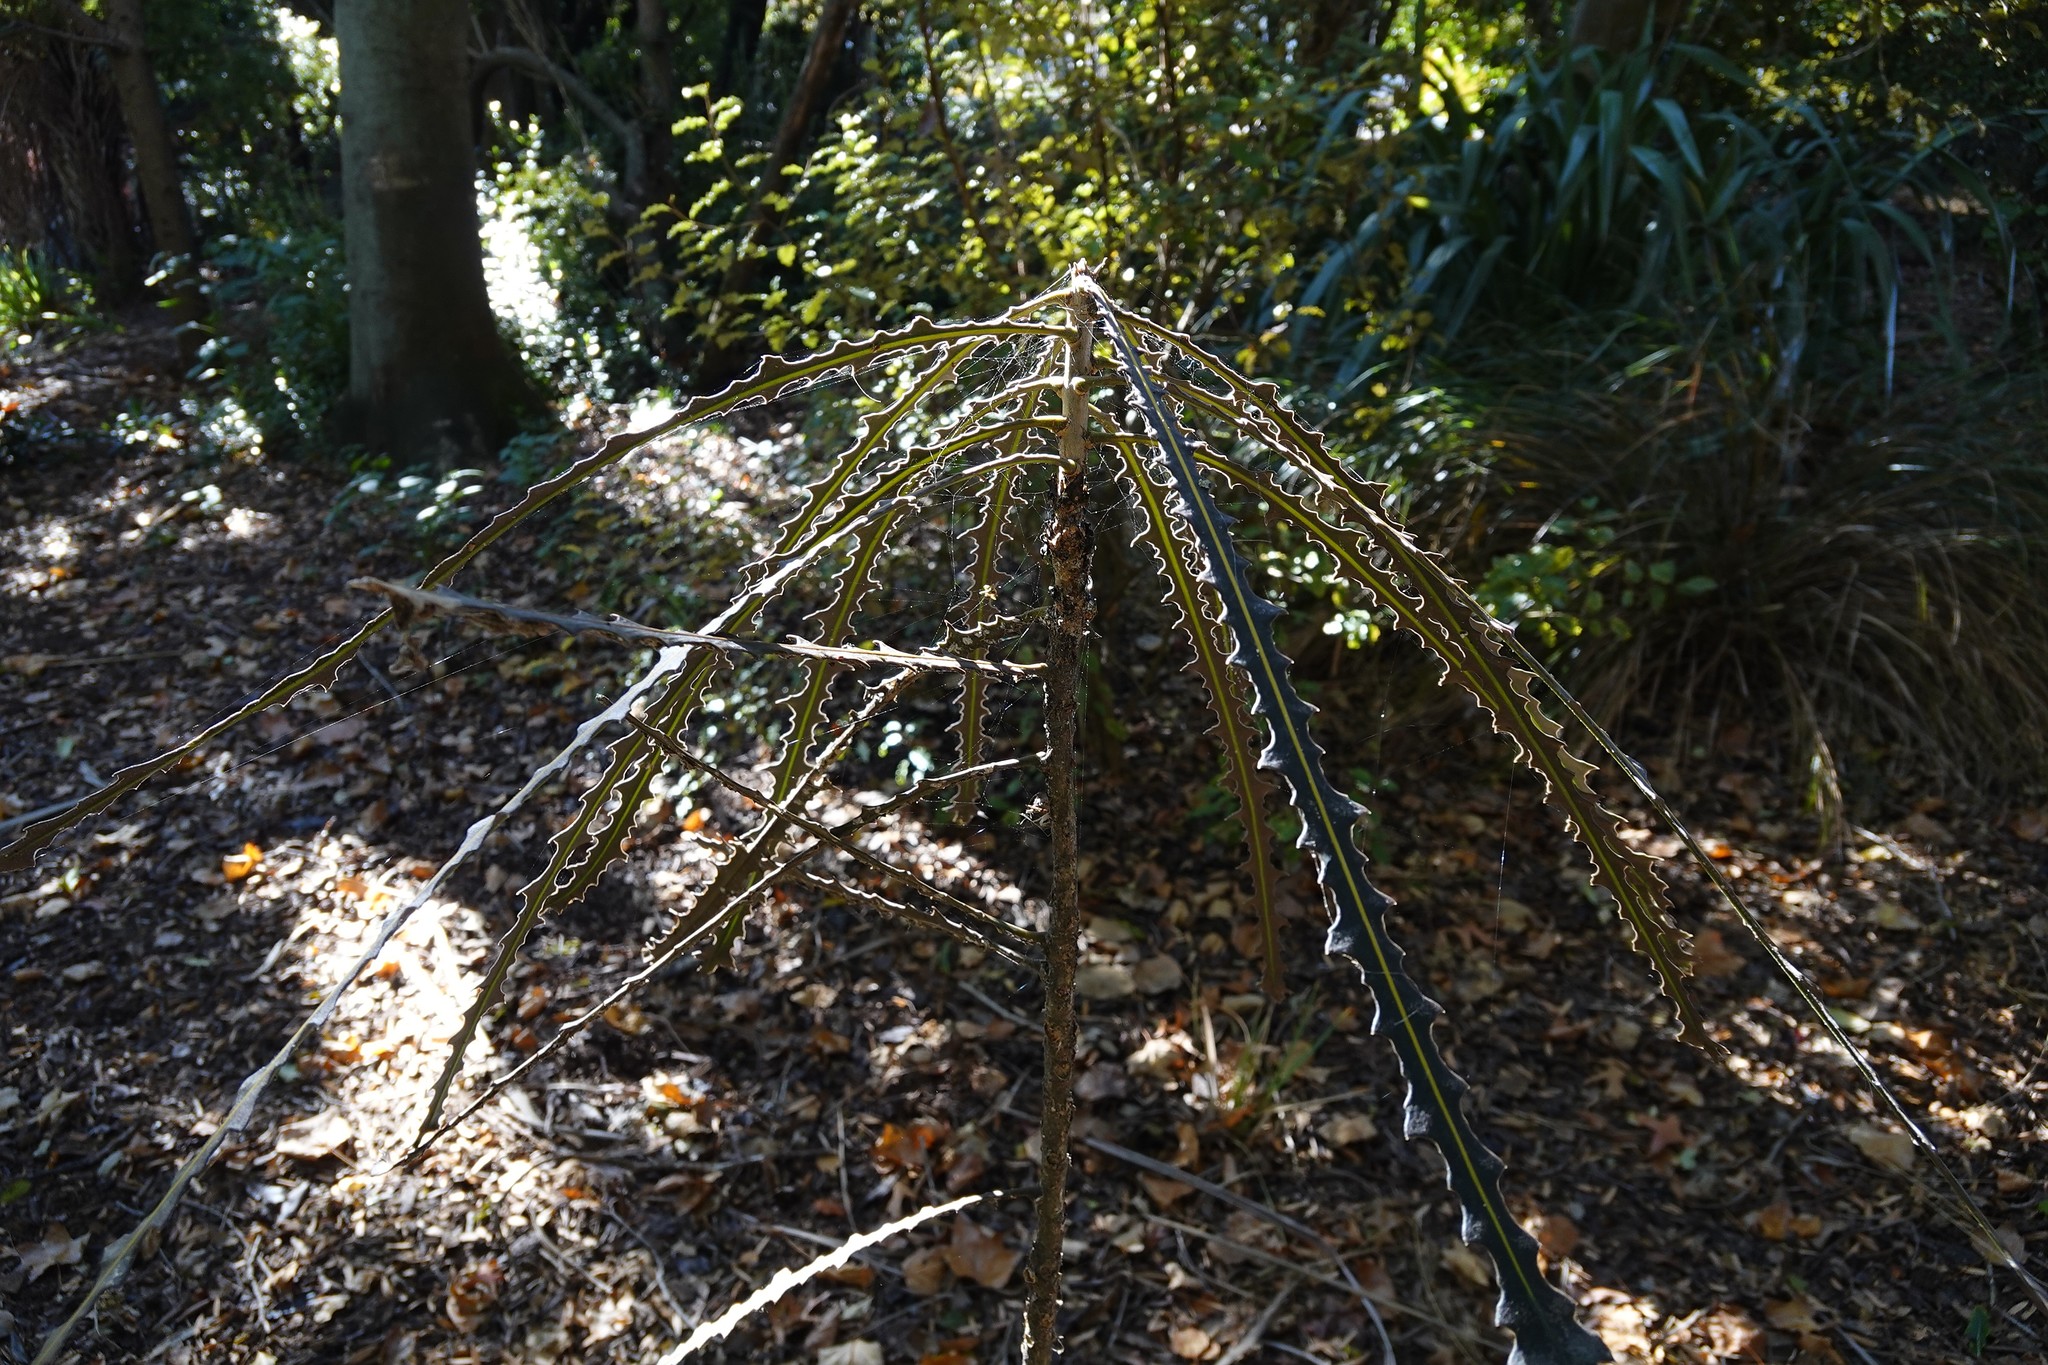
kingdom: Plantae
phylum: Tracheophyta
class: Magnoliopsida
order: Apiales
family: Araliaceae
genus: Pseudopanax
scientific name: Pseudopanax ferox
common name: Fierce lancewood
